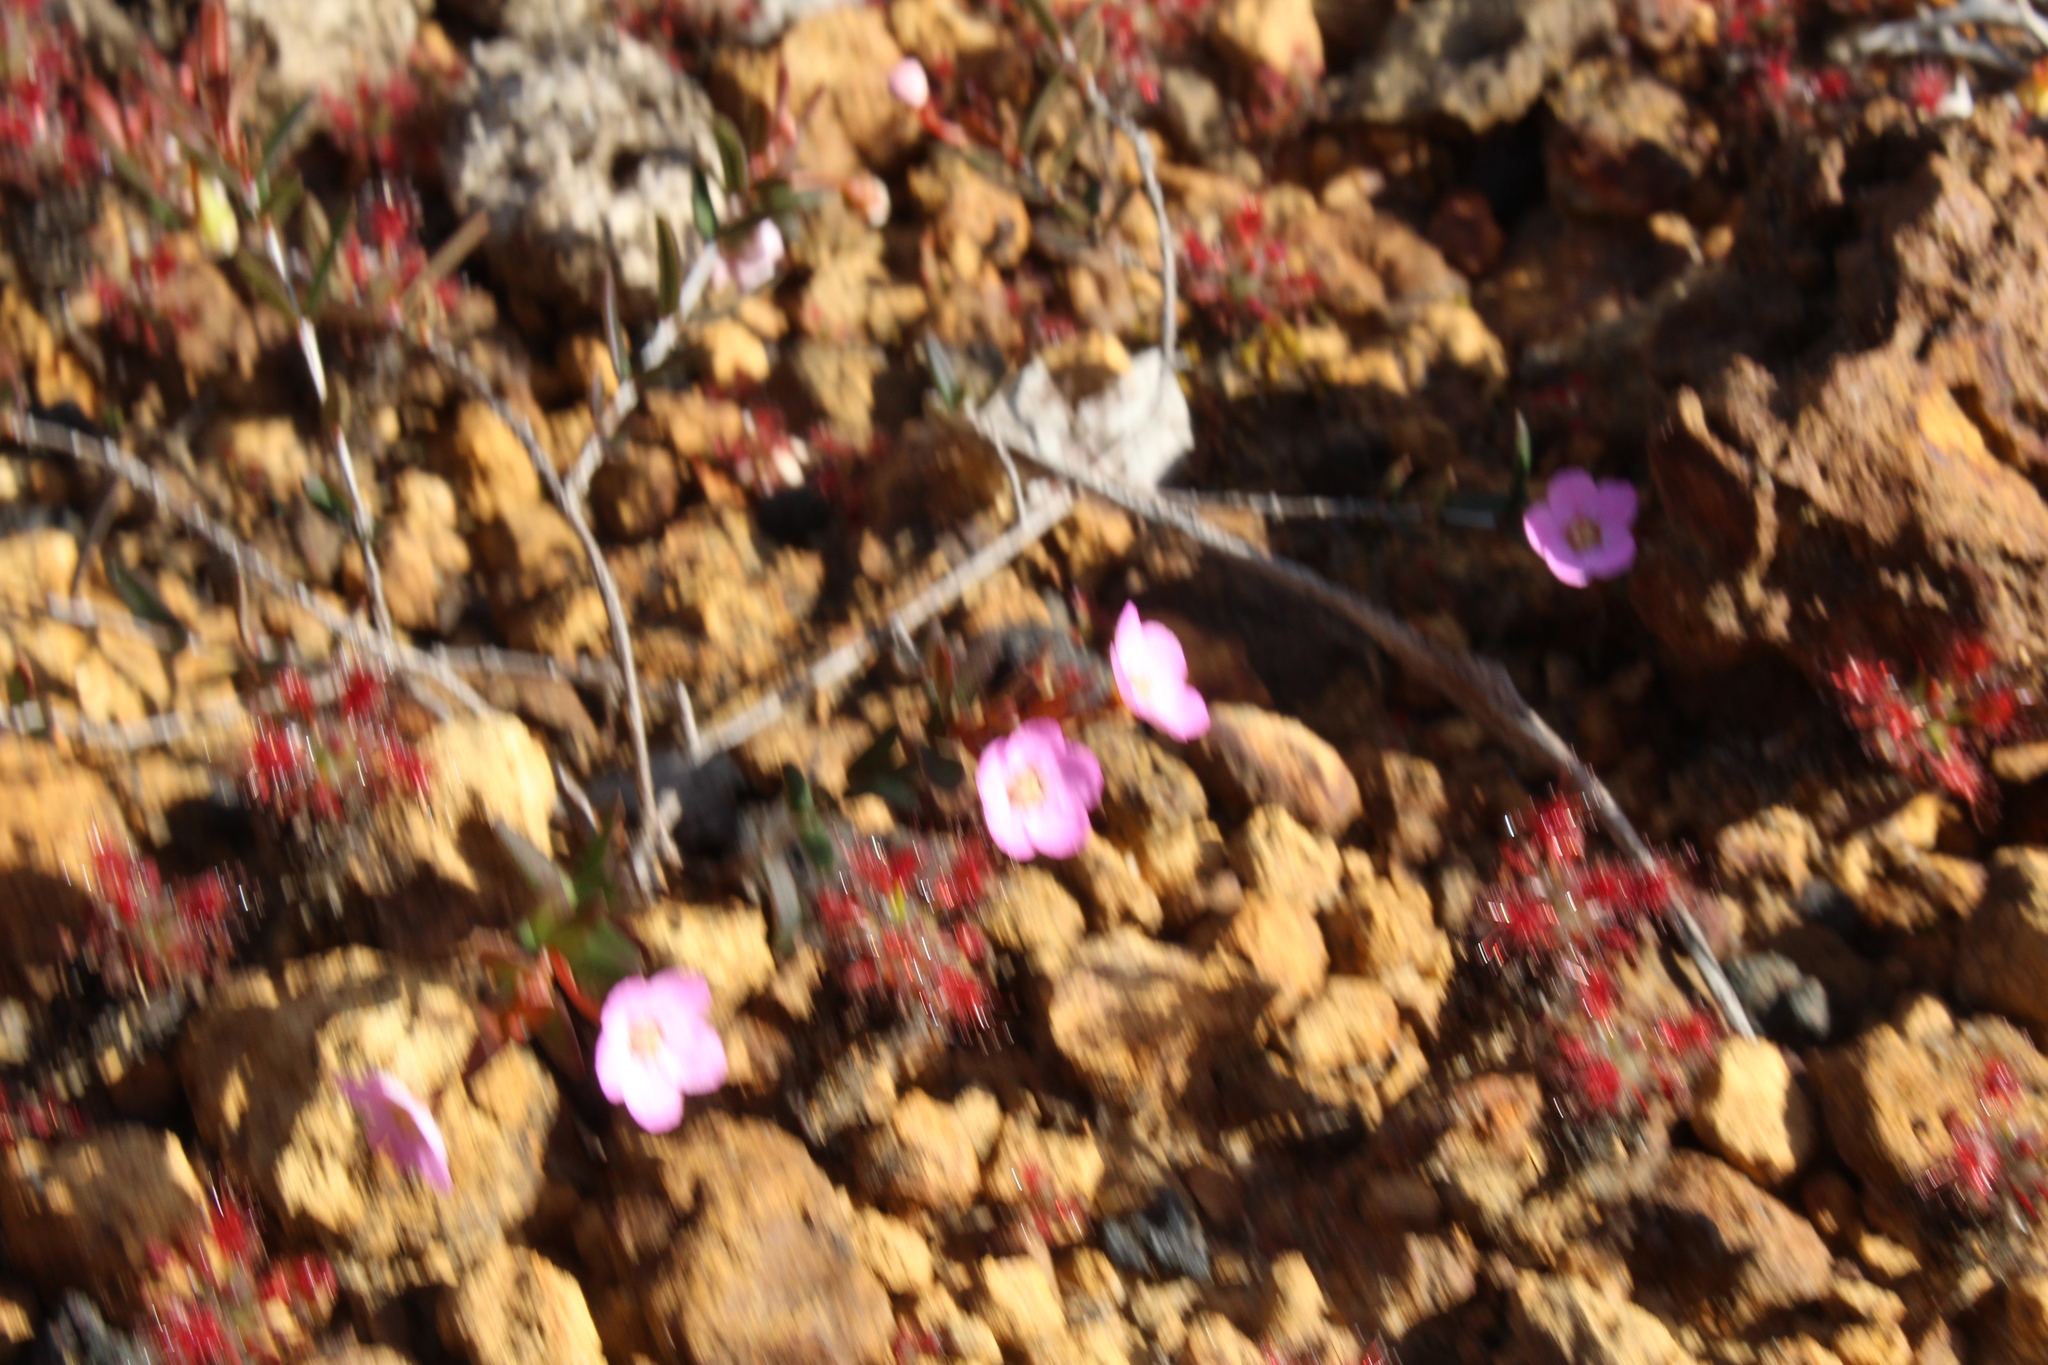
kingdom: Plantae
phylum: Tracheophyta
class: Magnoliopsida
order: Caryophyllales
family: Droseraceae
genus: Drosera
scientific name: Drosera verrucata
